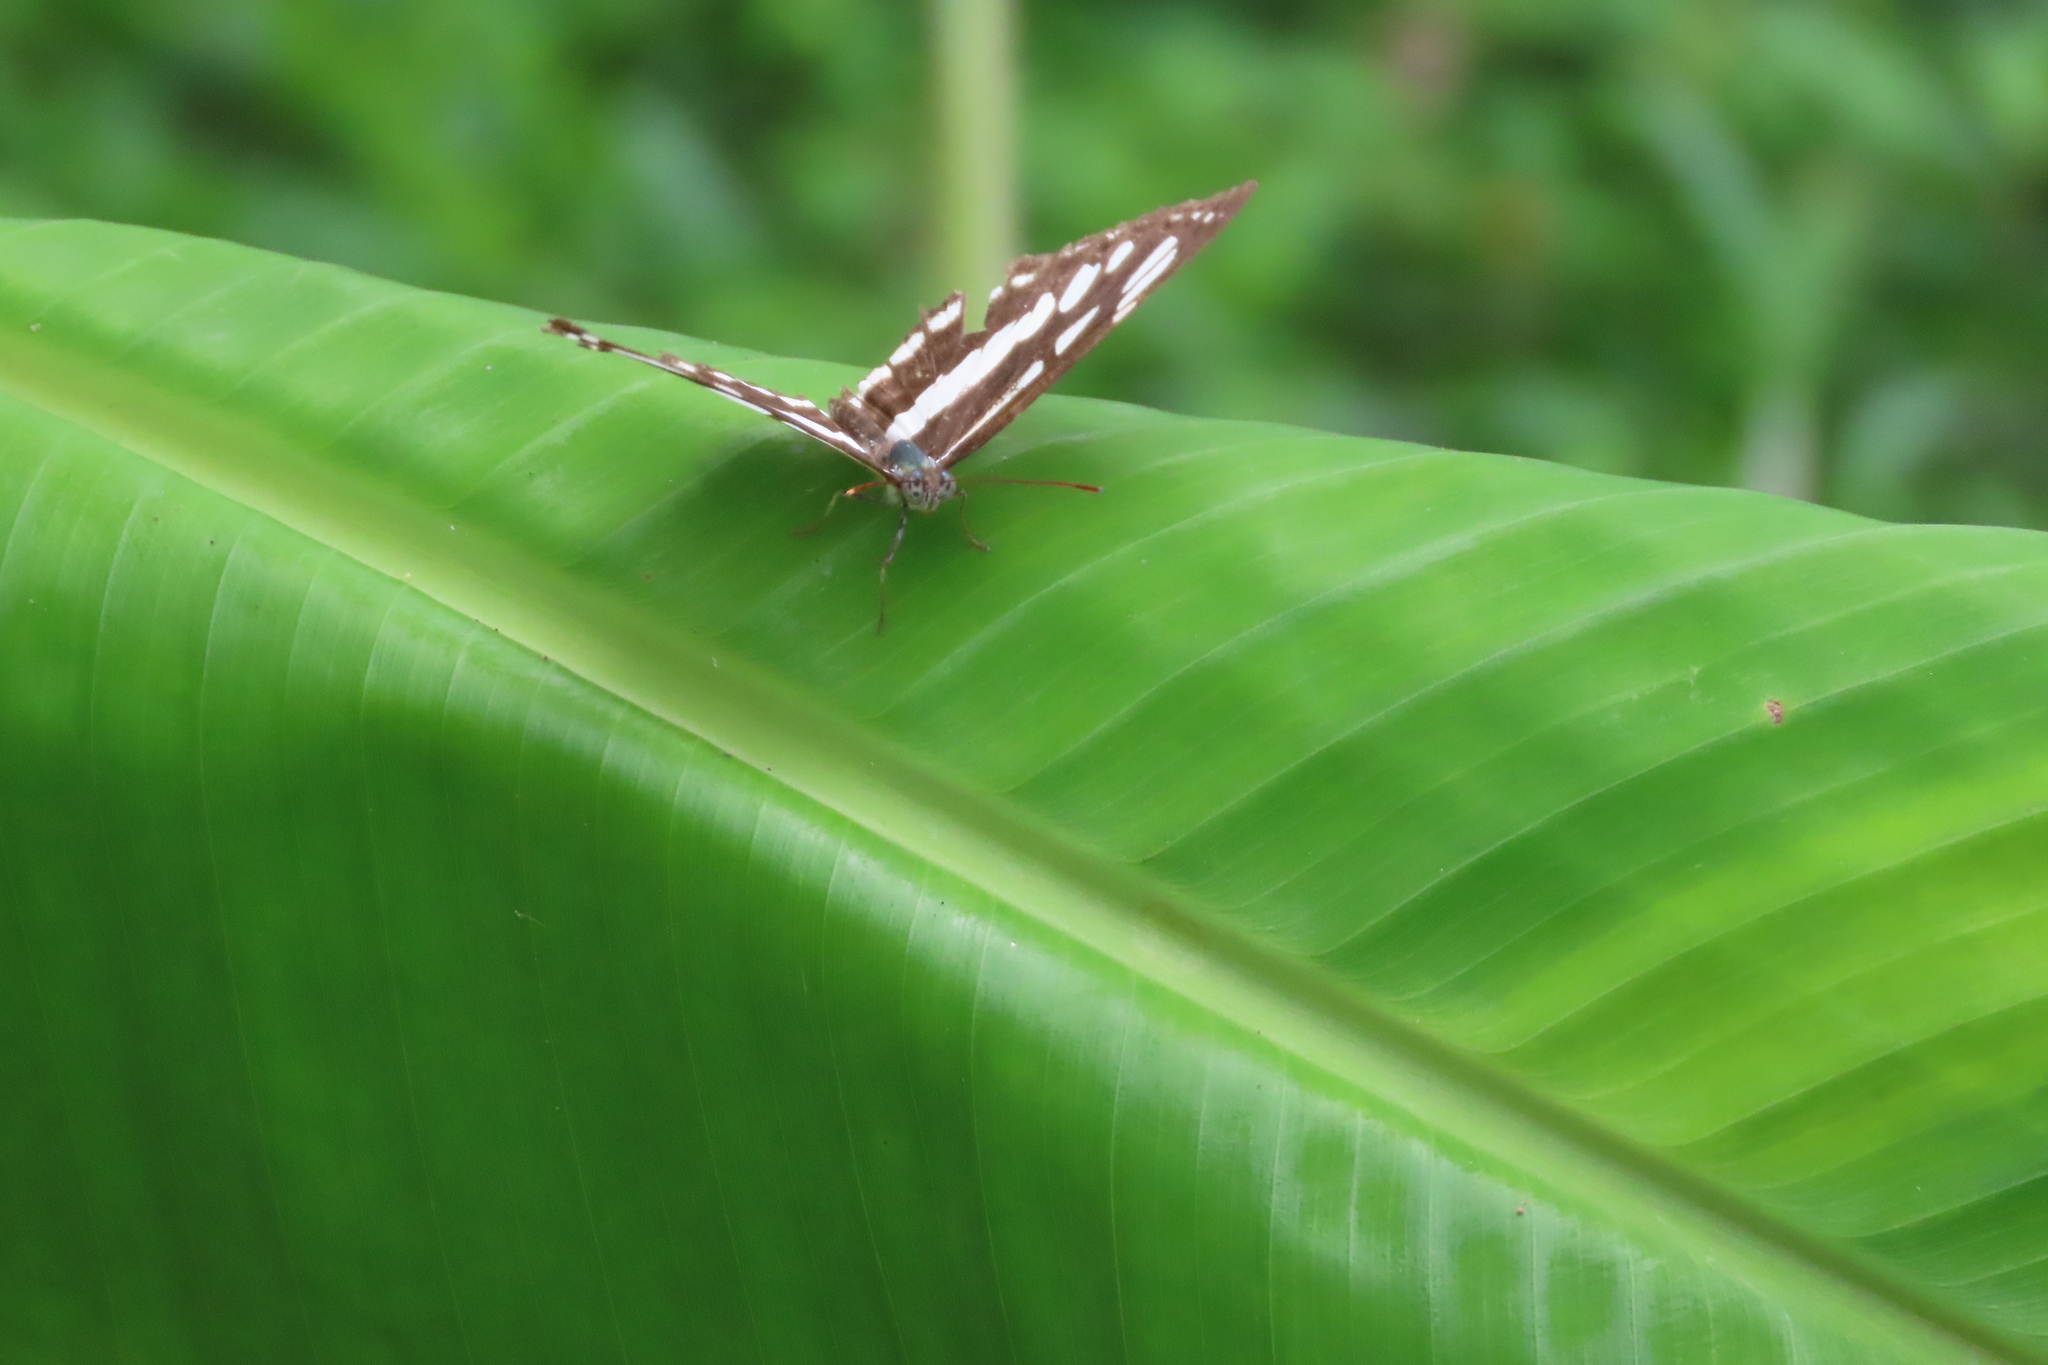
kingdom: Animalia
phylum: Arthropoda
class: Insecta
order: Lepidoptera
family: Nymphalidae
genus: Neptis
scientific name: Neptis hylas
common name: Common sailer
